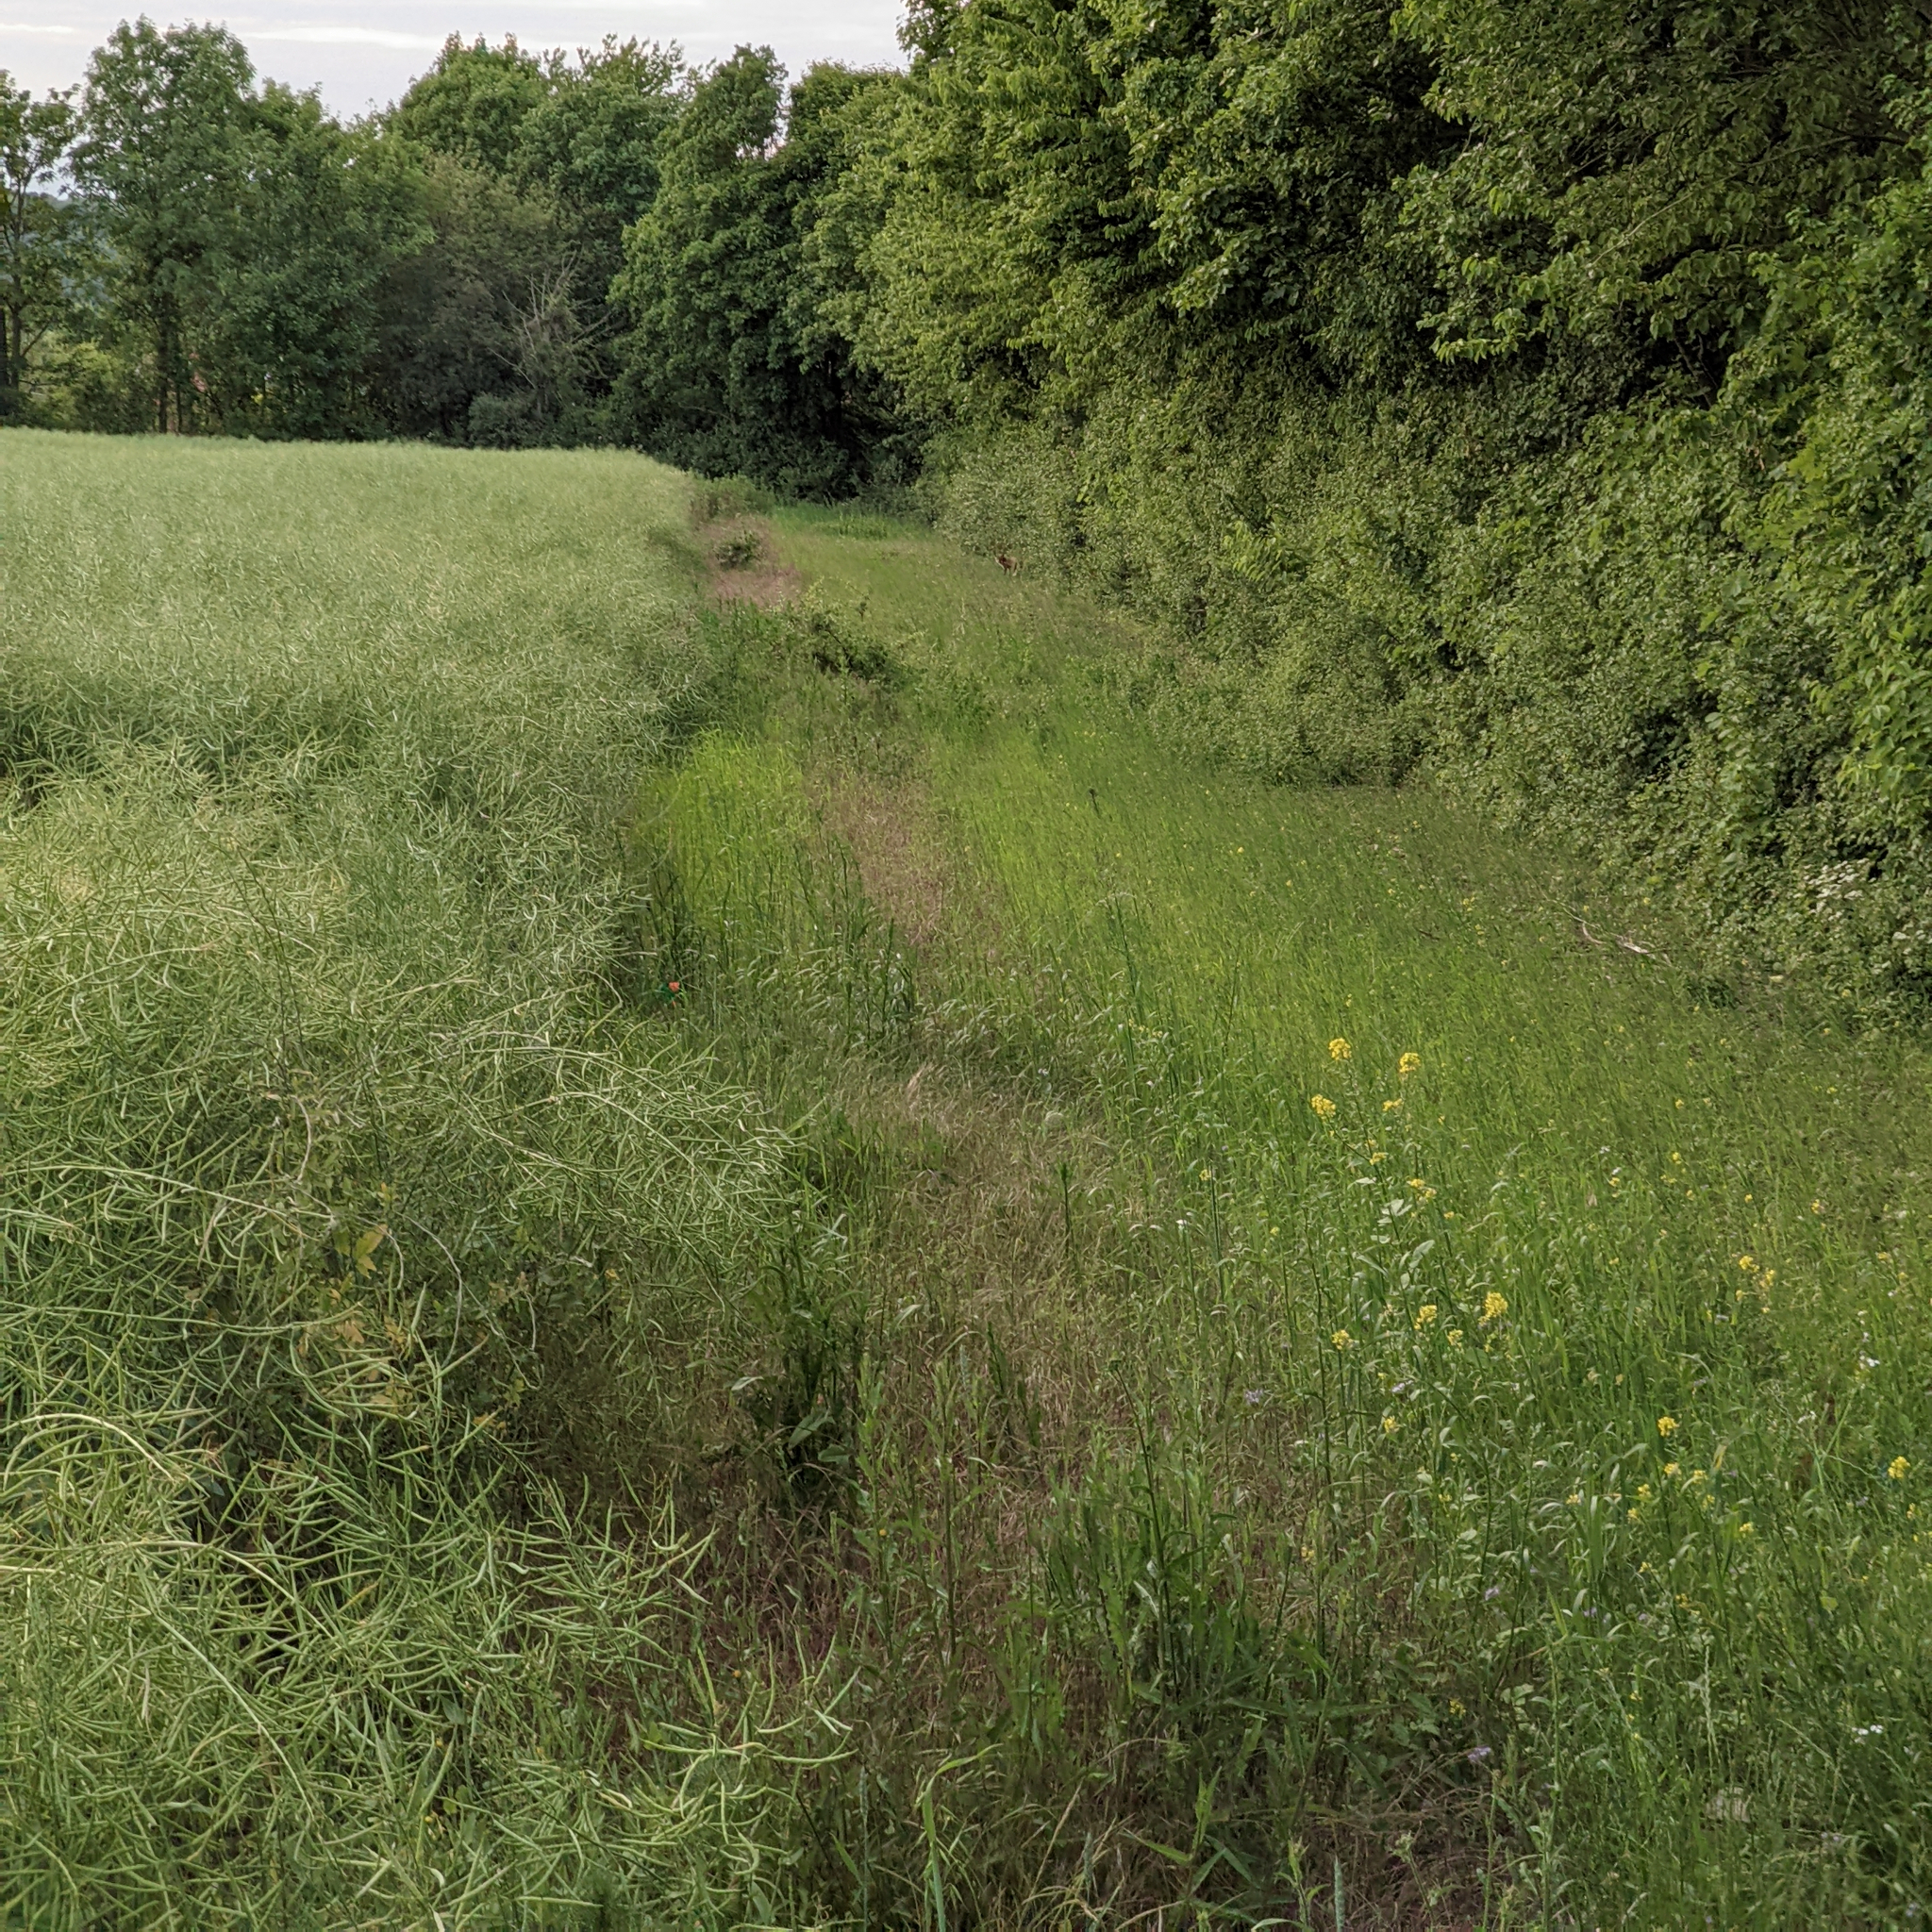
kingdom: Animalia
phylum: Chordata
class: Mammalia
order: Carnivora
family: Canidae
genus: Vulpes
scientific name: Vulpes vulpes
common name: Red fox
